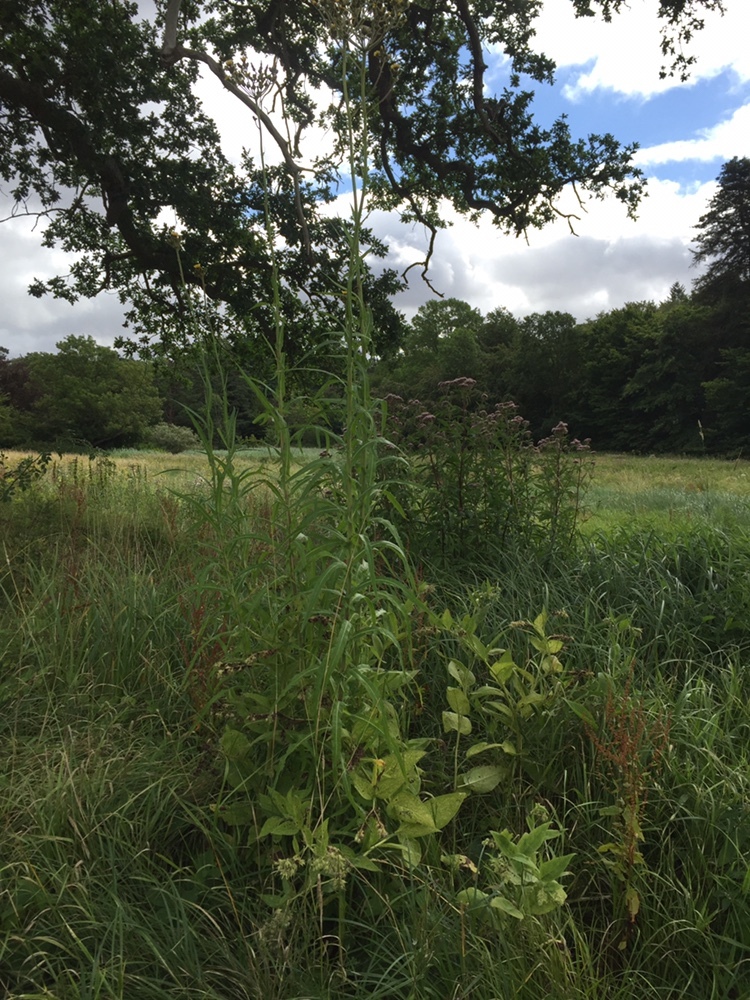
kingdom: Plantae
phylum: Tracheophyta
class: Magnoliopsida
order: Asterales
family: Asteraceae
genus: Sonchus
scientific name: Sonchus palustris
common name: Marsh sow-thistle
